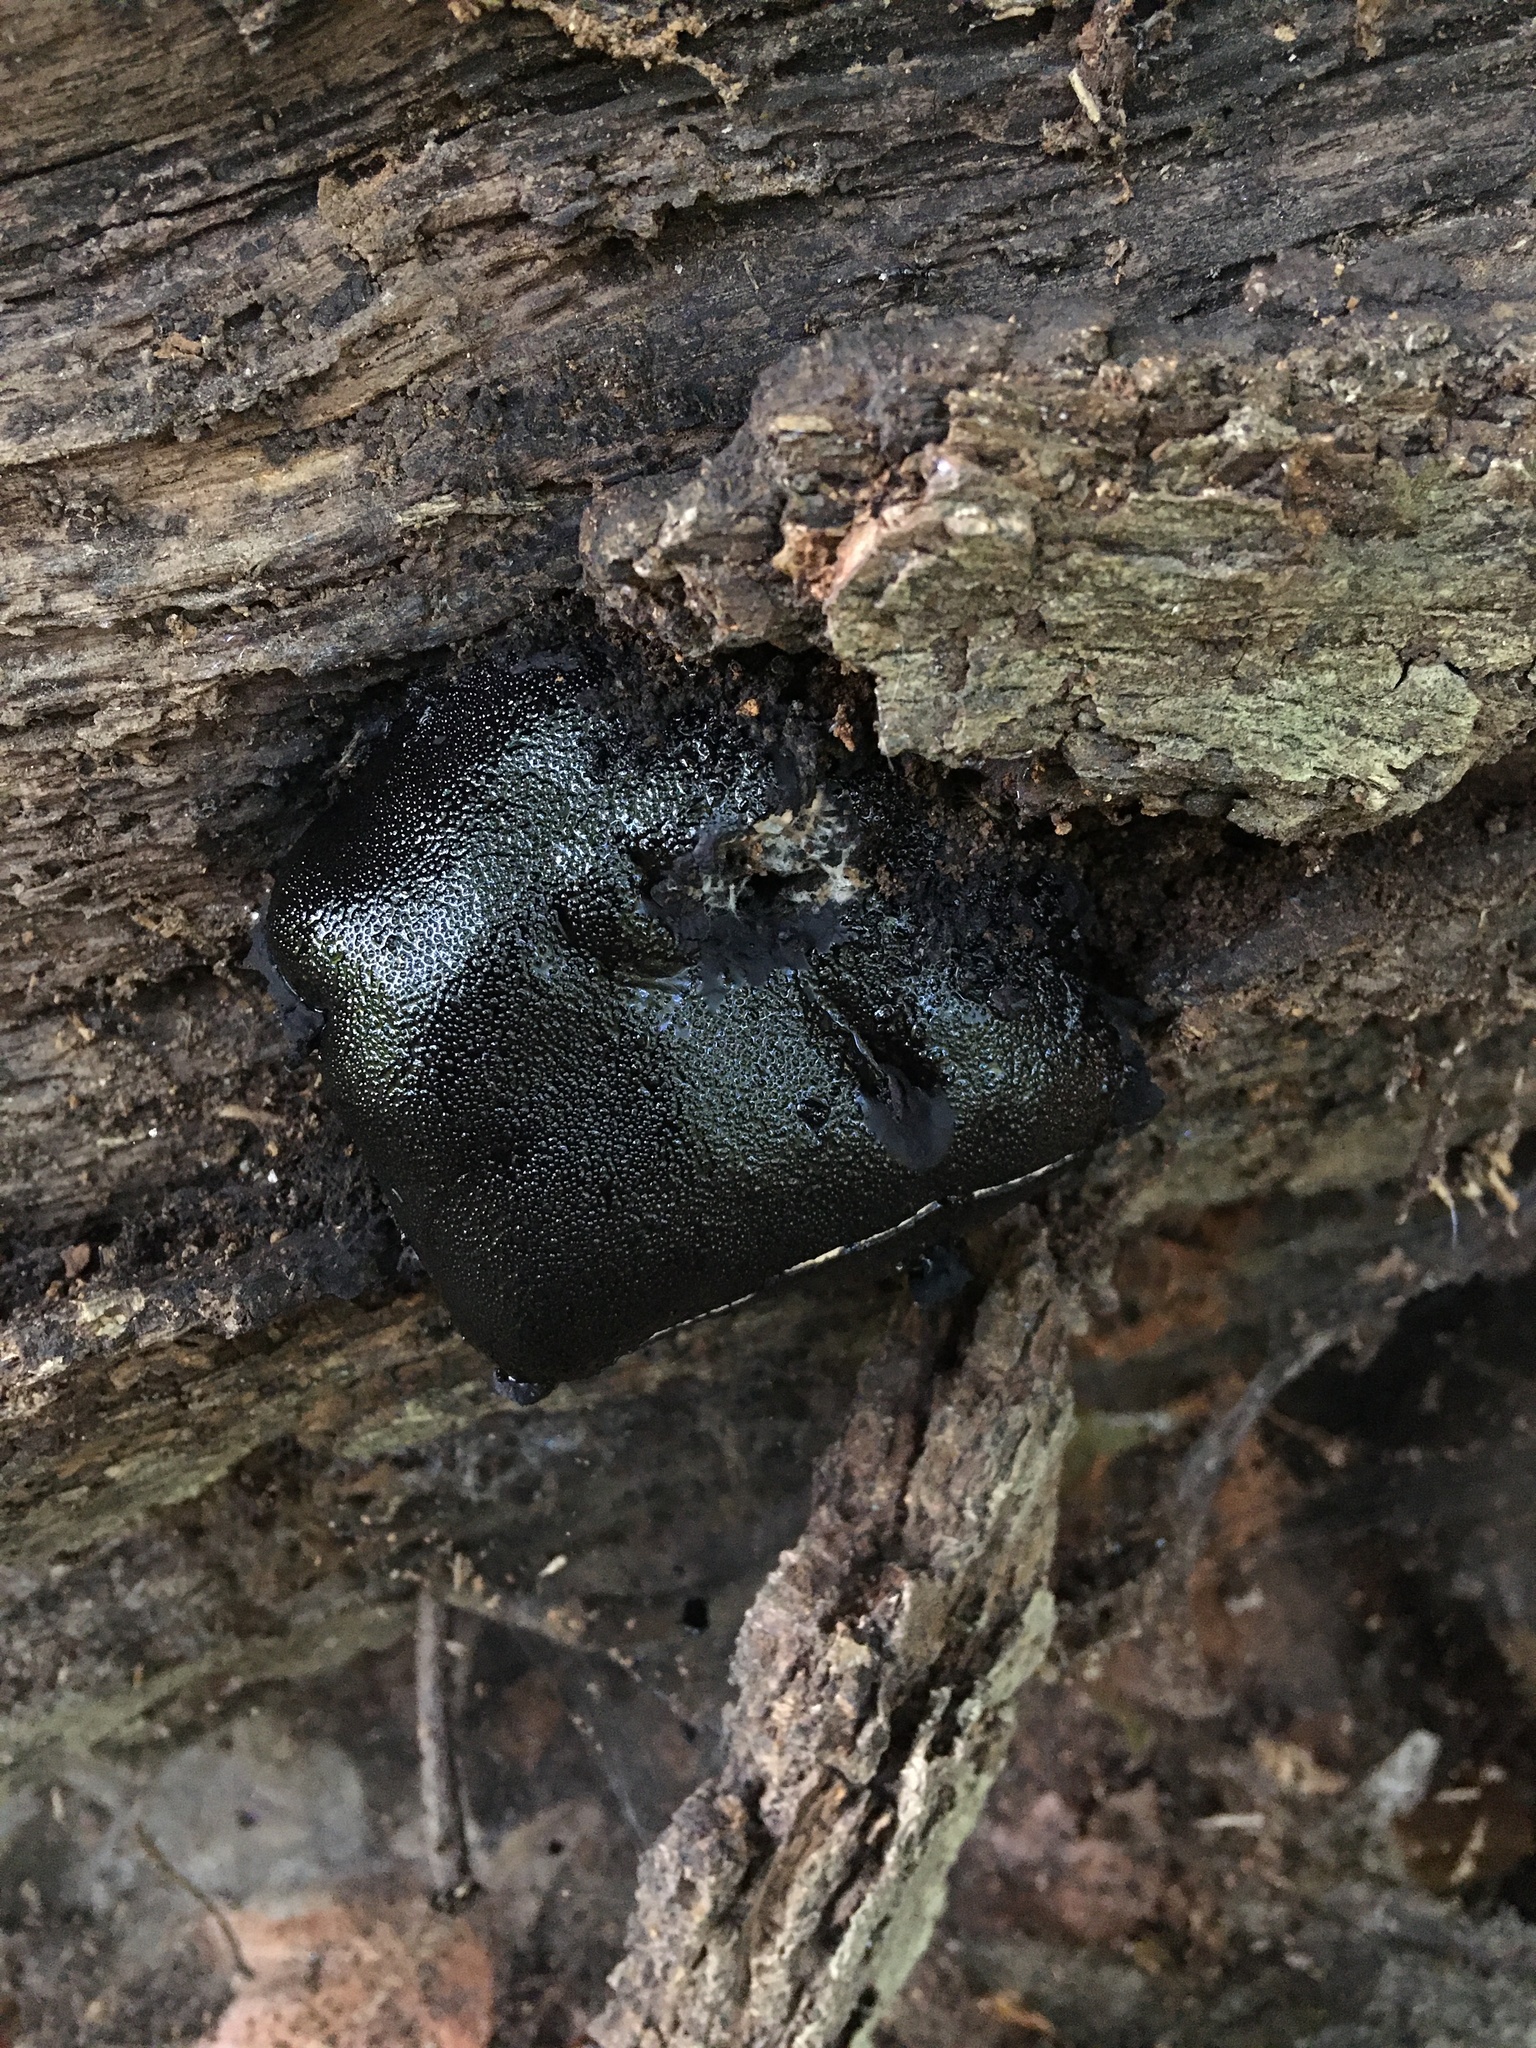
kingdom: Fungi
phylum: Ascomycota
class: Sordariomycetes
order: Boliniales
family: Boliniaceae
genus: Camarops
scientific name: Camarops petersii
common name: Dog's nose fungus
